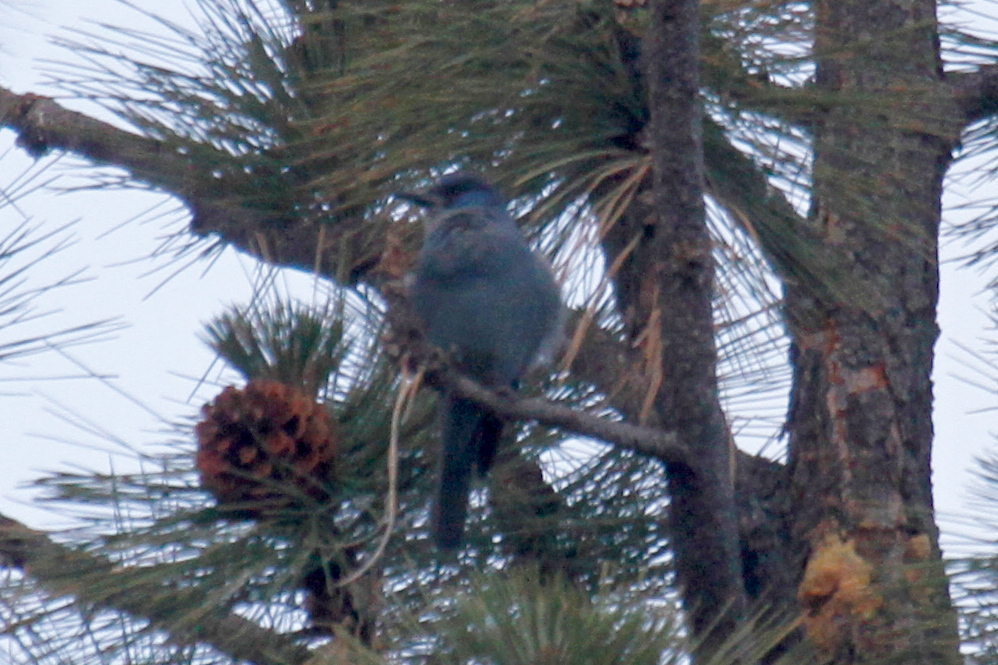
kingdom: Animalia
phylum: Chordata
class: Aves
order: Passeriformes
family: Corvidae
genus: Gymnorhinus
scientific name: Gymnorhinus cyanocephalus
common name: Pinyon jay
